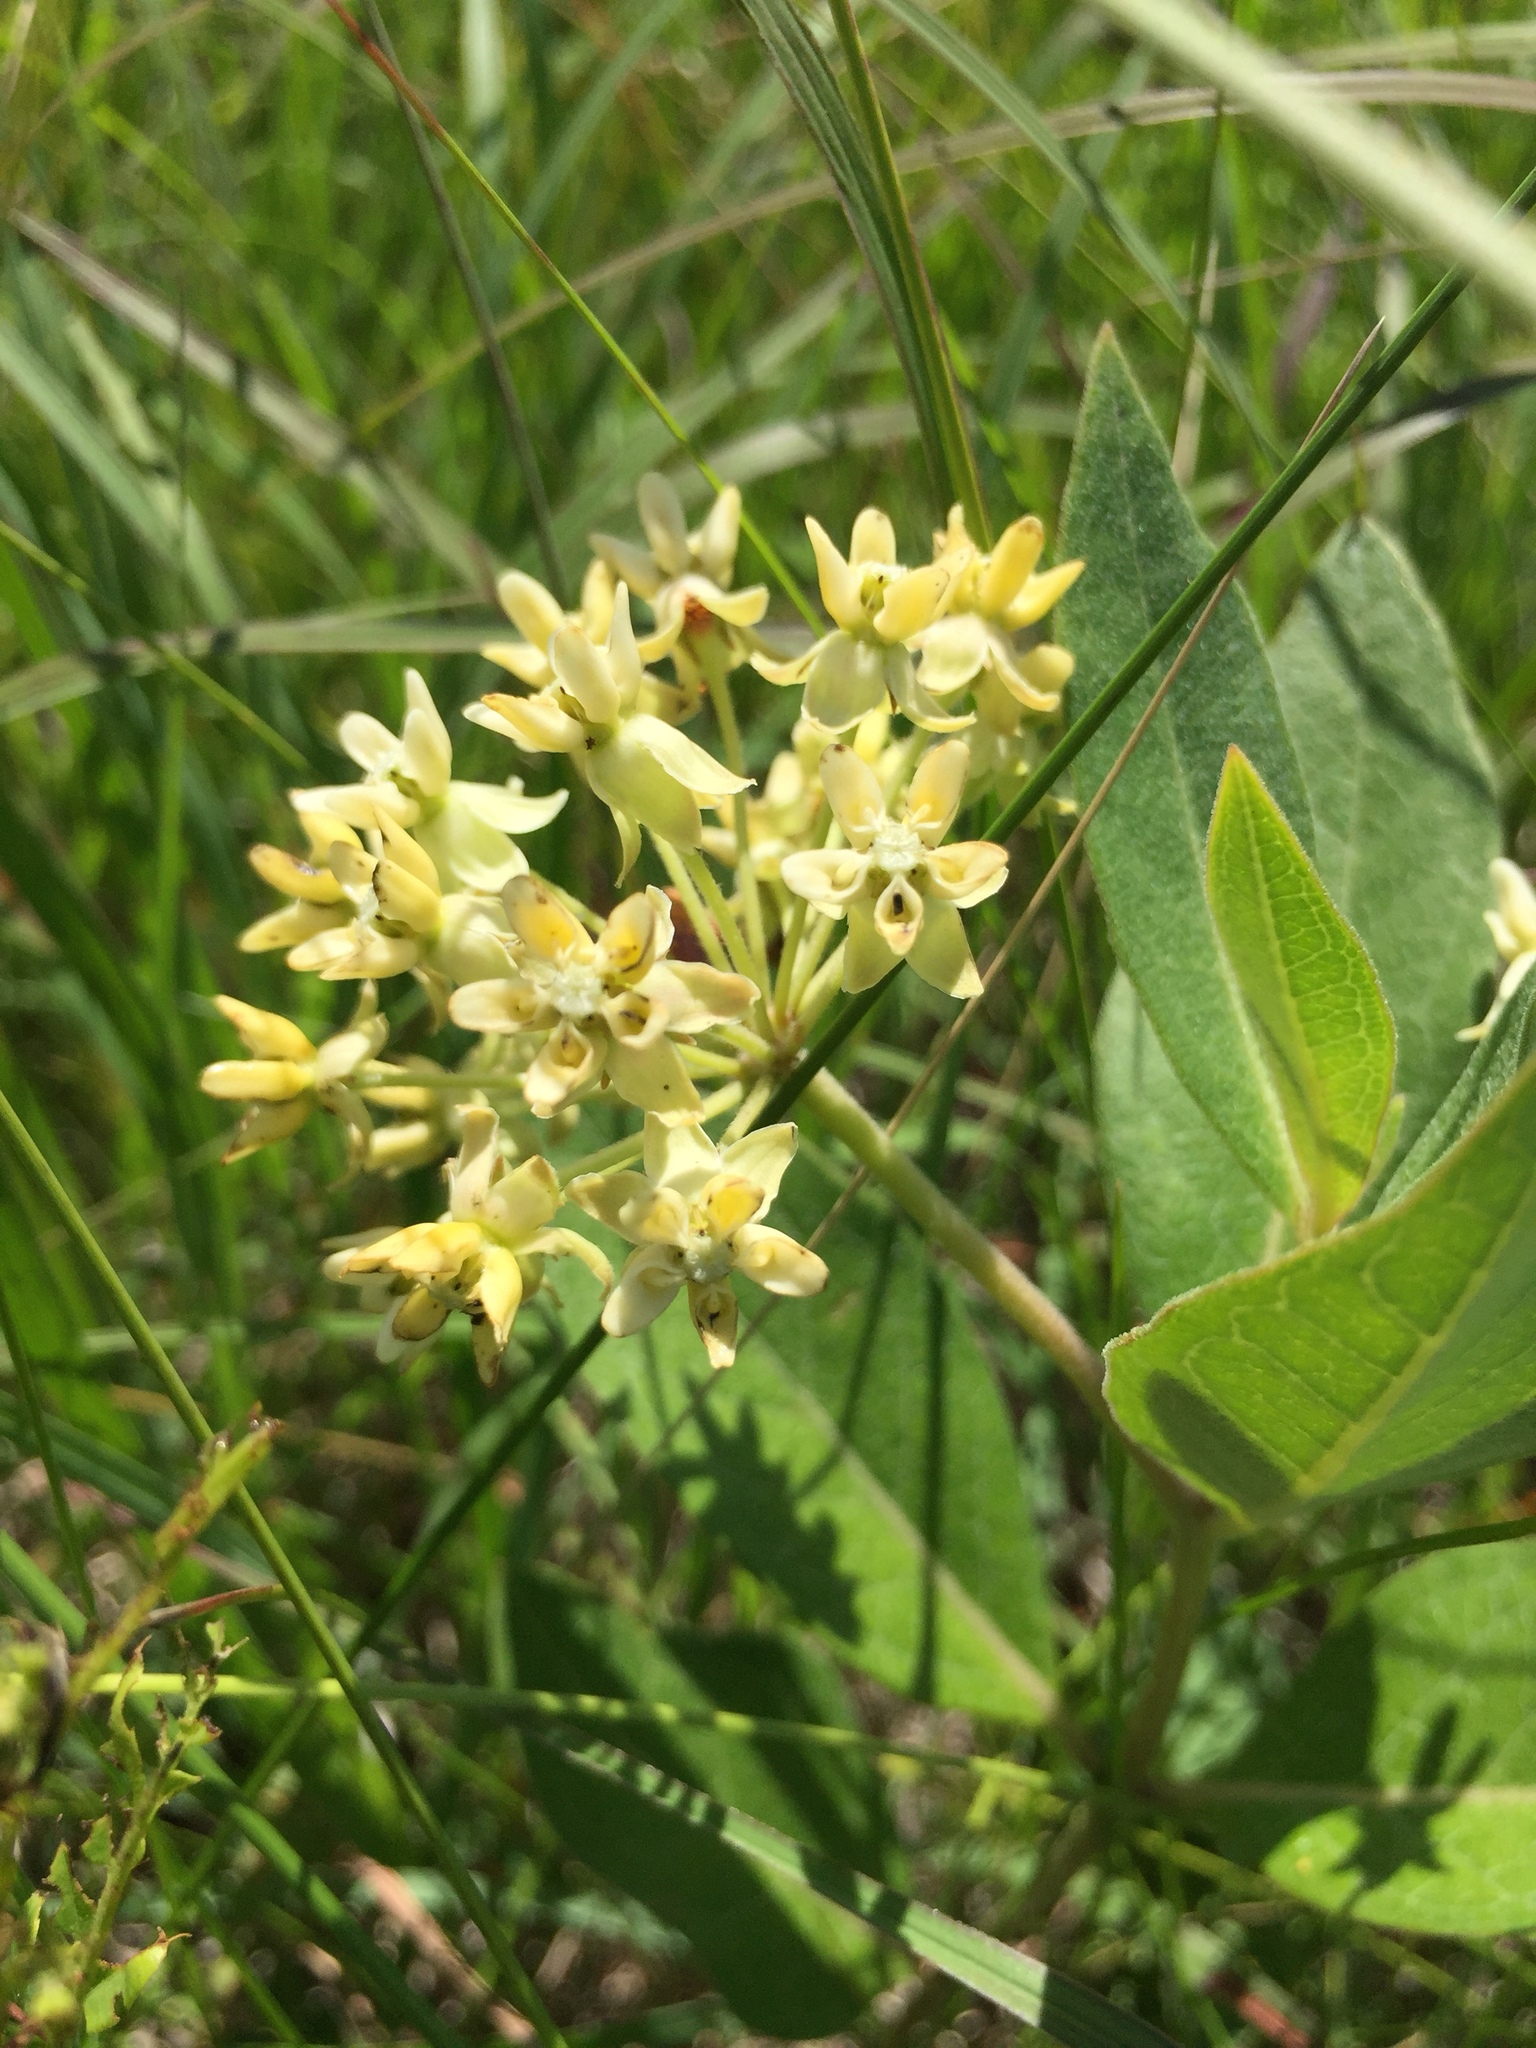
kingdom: Plantae
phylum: Tracheophyta
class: Magnoliopsida
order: Gentianales
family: Apocynaceae
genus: Asclepias
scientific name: Asclepias ovalifolia
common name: Dwarf milkweed
